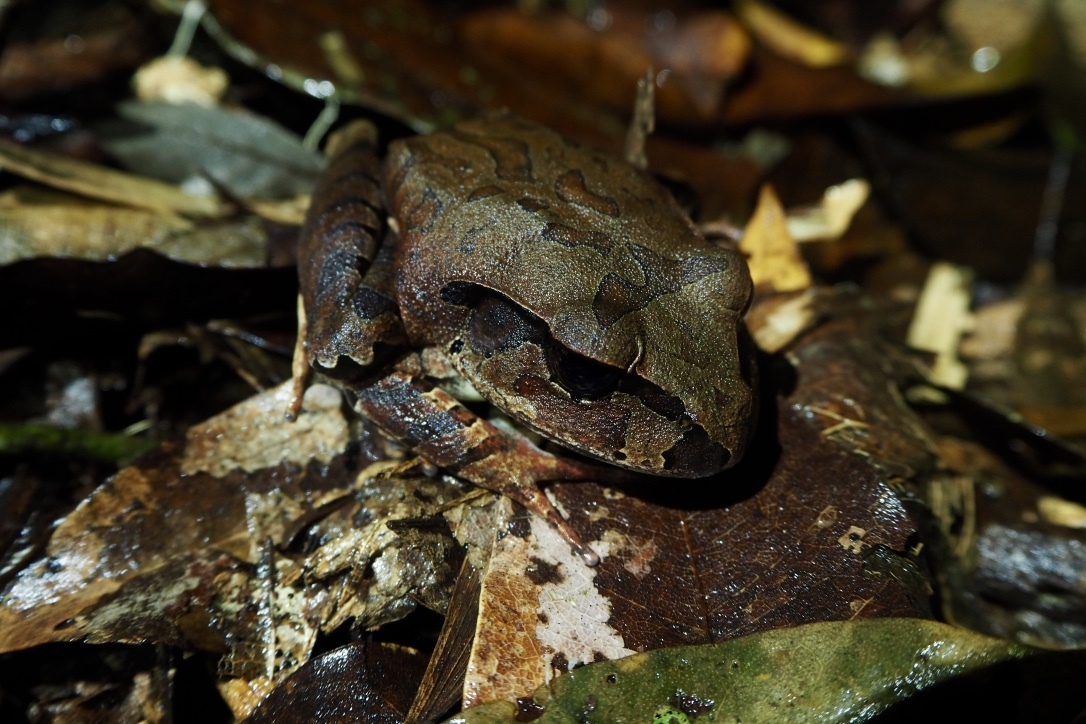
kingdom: Animalia
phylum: Chordata
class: Amphibia
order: Anura
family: Myobatrachidae
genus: Mixophyes
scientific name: Mixophyes coggeri
